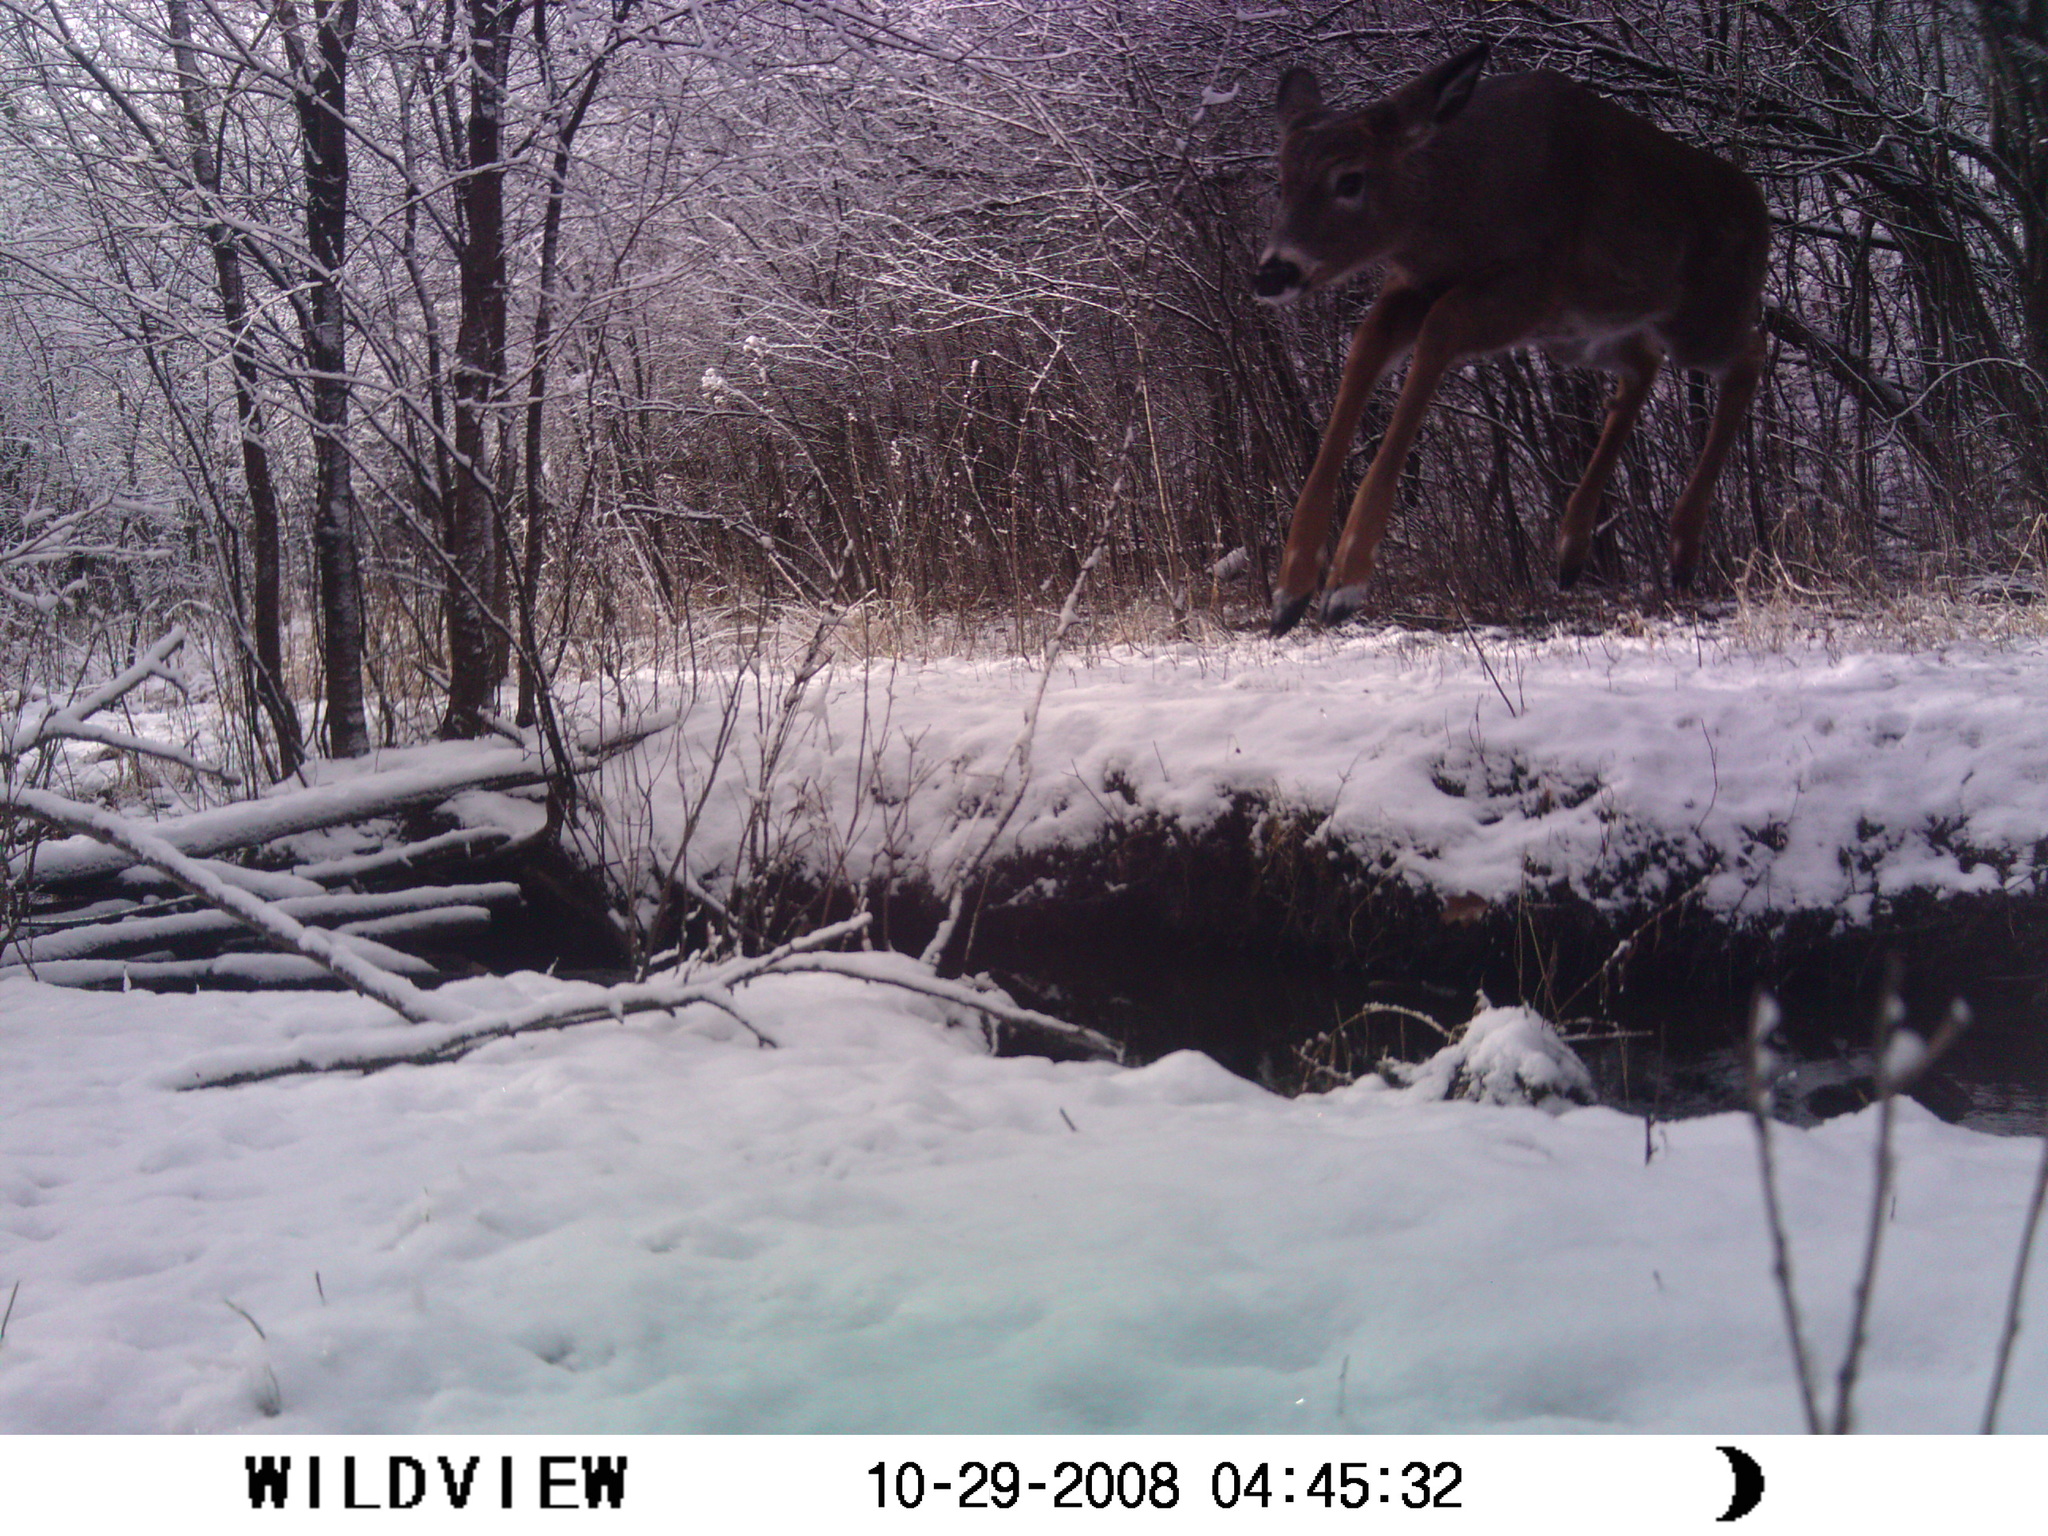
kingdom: Animalia
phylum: Chordata
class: Mammalia
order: Artiodactyla
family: Cervidae
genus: Odocoileus
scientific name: Odocoileus virginianus
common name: White-tailed deer
